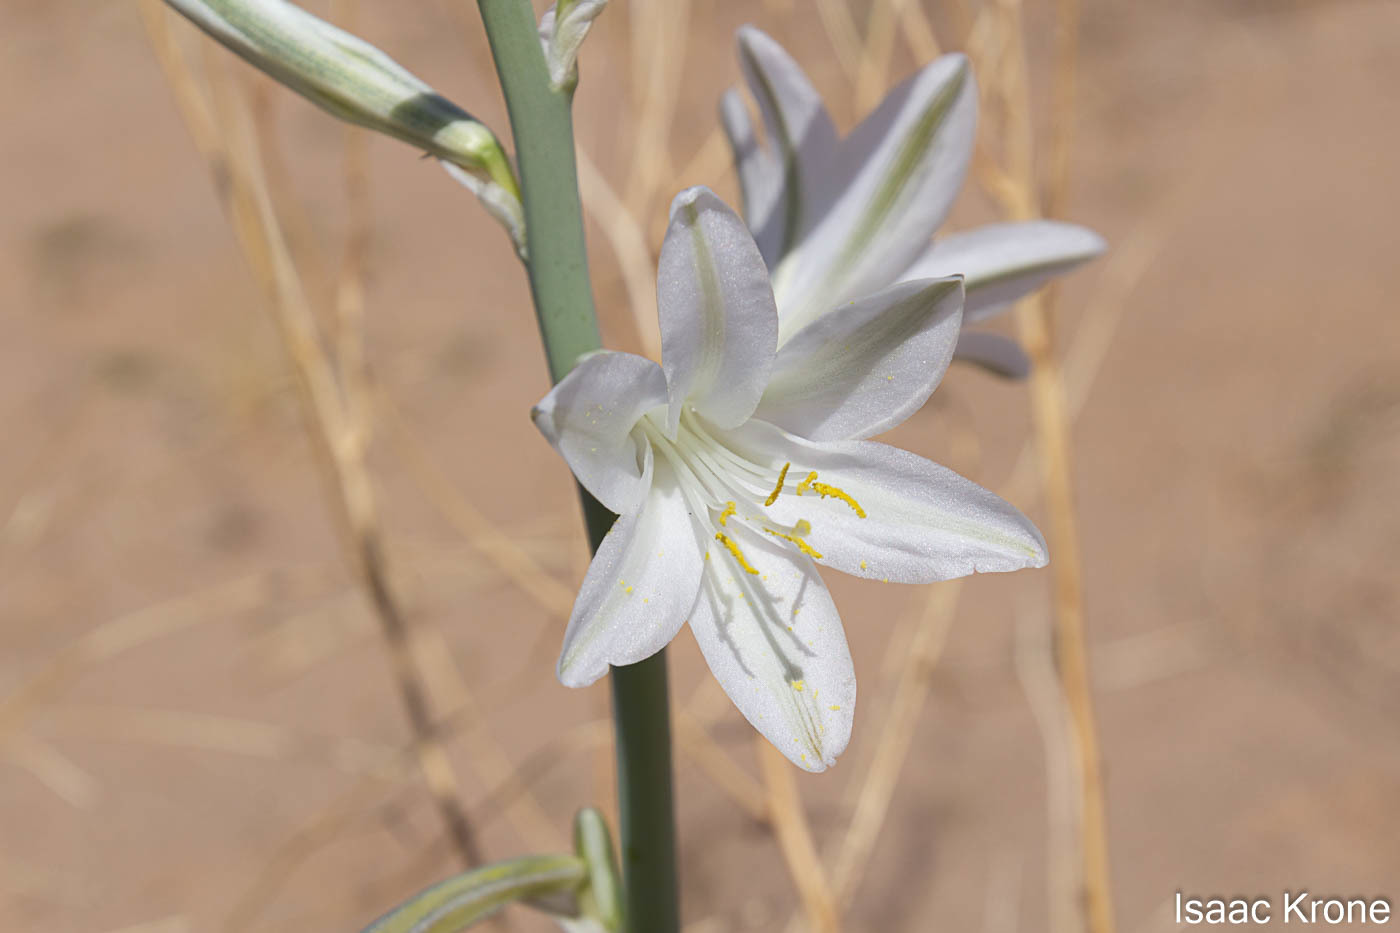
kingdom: Plantae
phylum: Tracheophyta
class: Liliopsida
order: Asparagales
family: Asparagaceae
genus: Hesperocallis
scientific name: Hesperocallis undulata
